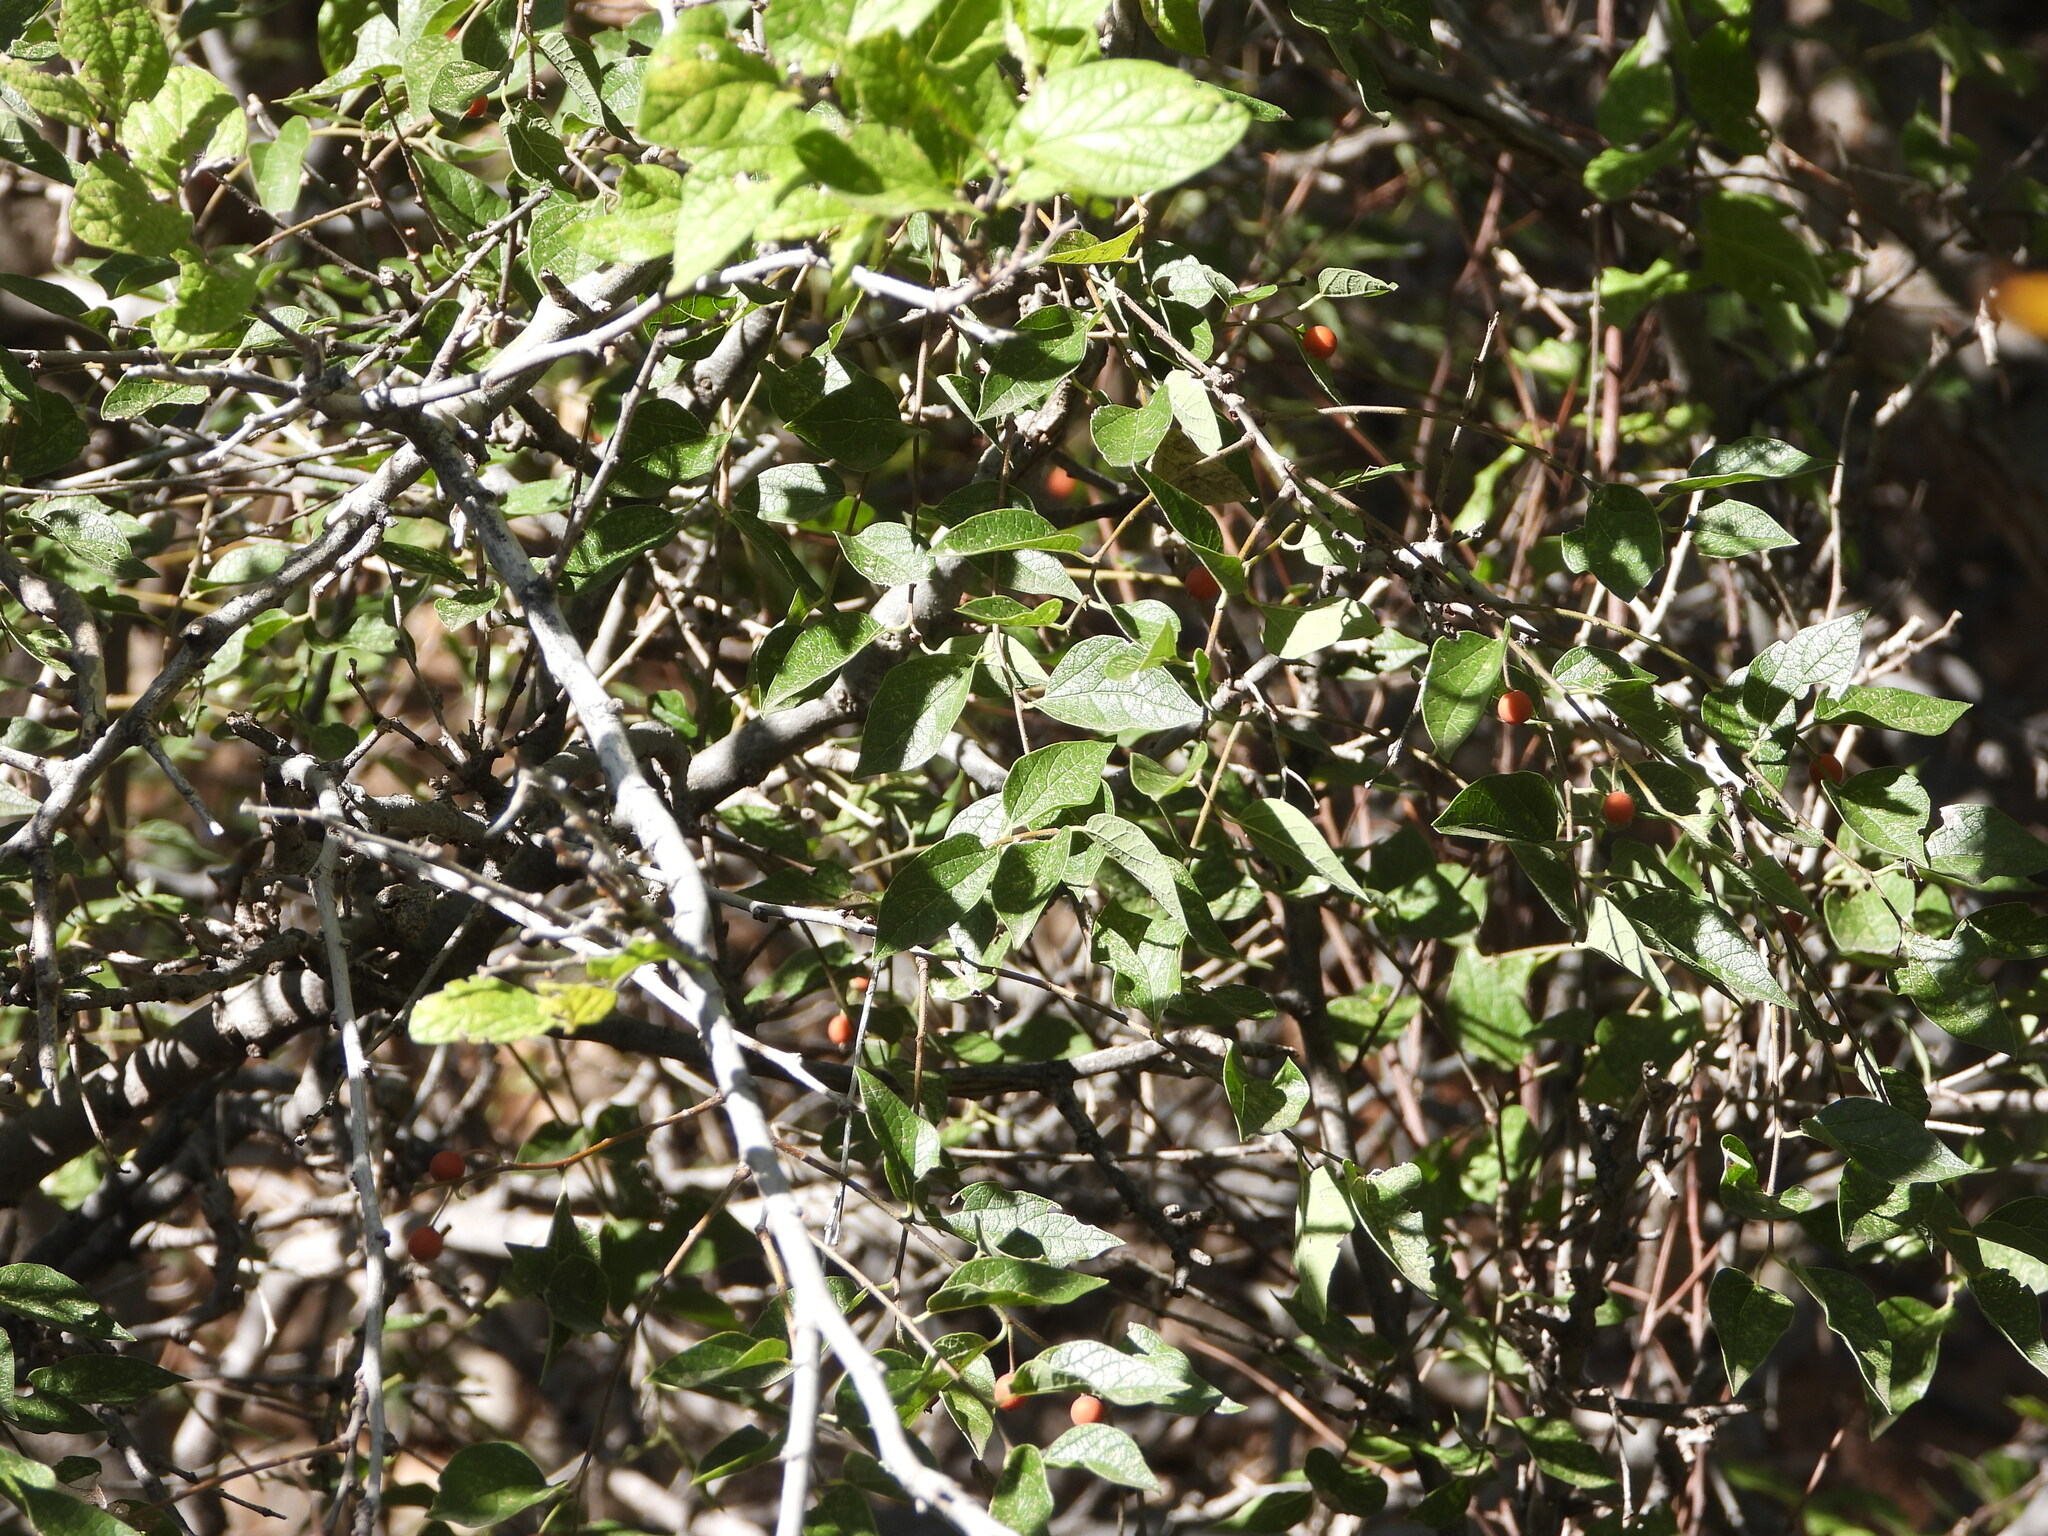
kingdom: Plantae
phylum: Tracheophyta
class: Magnoliopsida
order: Rosales
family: Cannabaceae
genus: Celtis
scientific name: Celtis reticulata
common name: Netleaf hackberry
